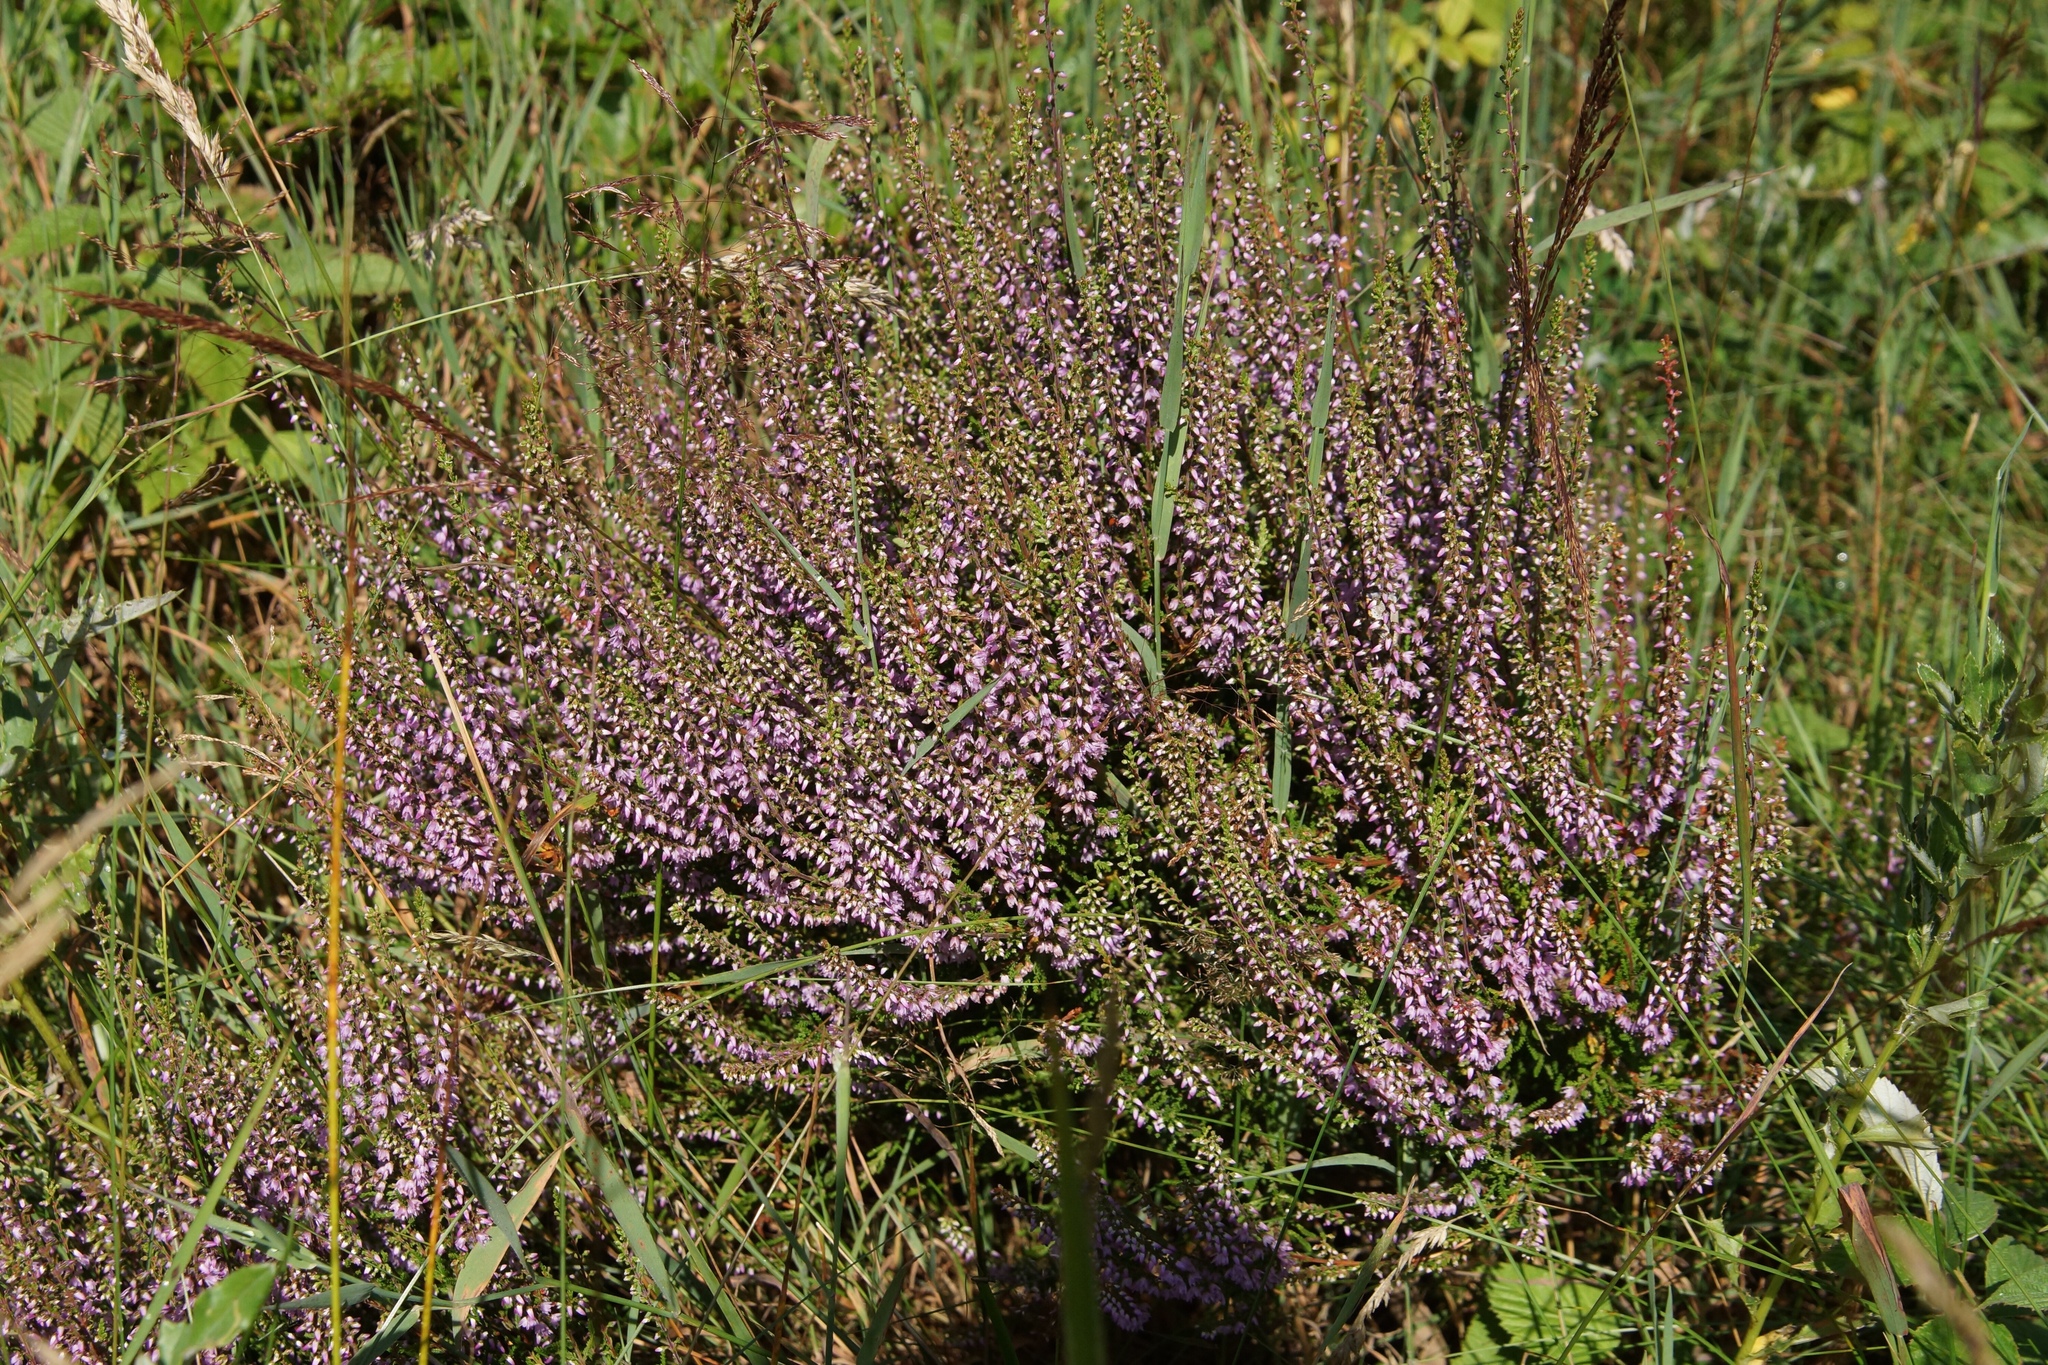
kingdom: Plantae
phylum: Tracheophyta
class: Magnoliopsida
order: Ericales
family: Ericaceae
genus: Calluna
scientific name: Calluna vulgaris
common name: Heather
